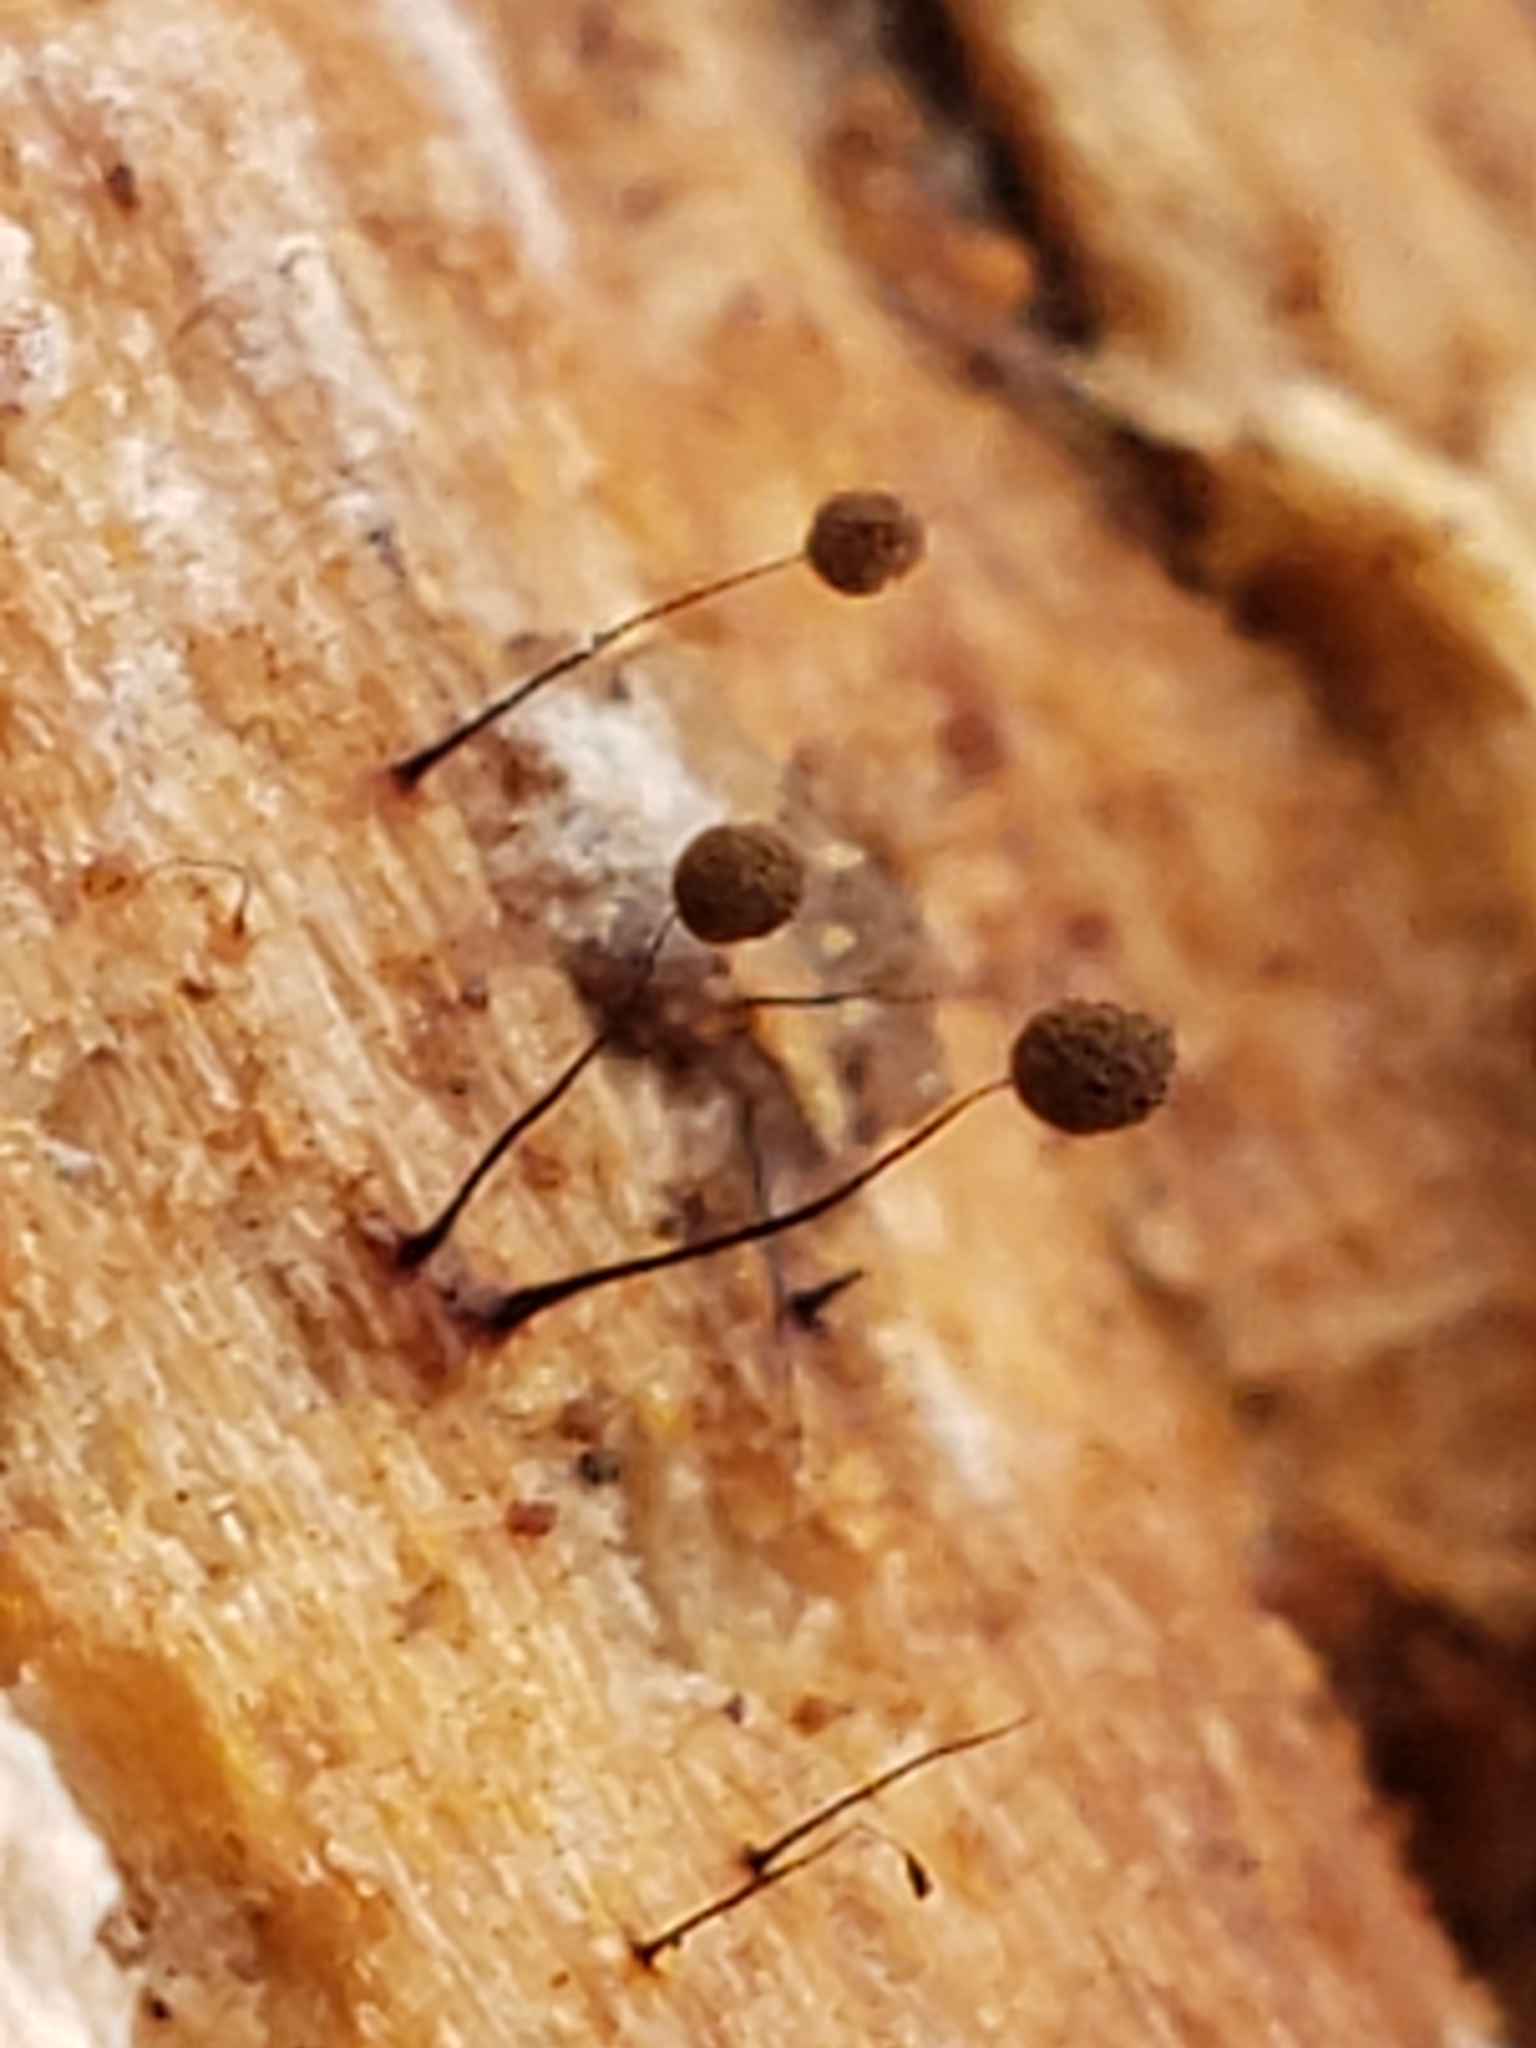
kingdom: Protozoa
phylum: Mycetozoa
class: Myxomycetes
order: Stemonitidales
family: Stemonitidaceae
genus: Comatricha
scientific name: Comatricha nigra
